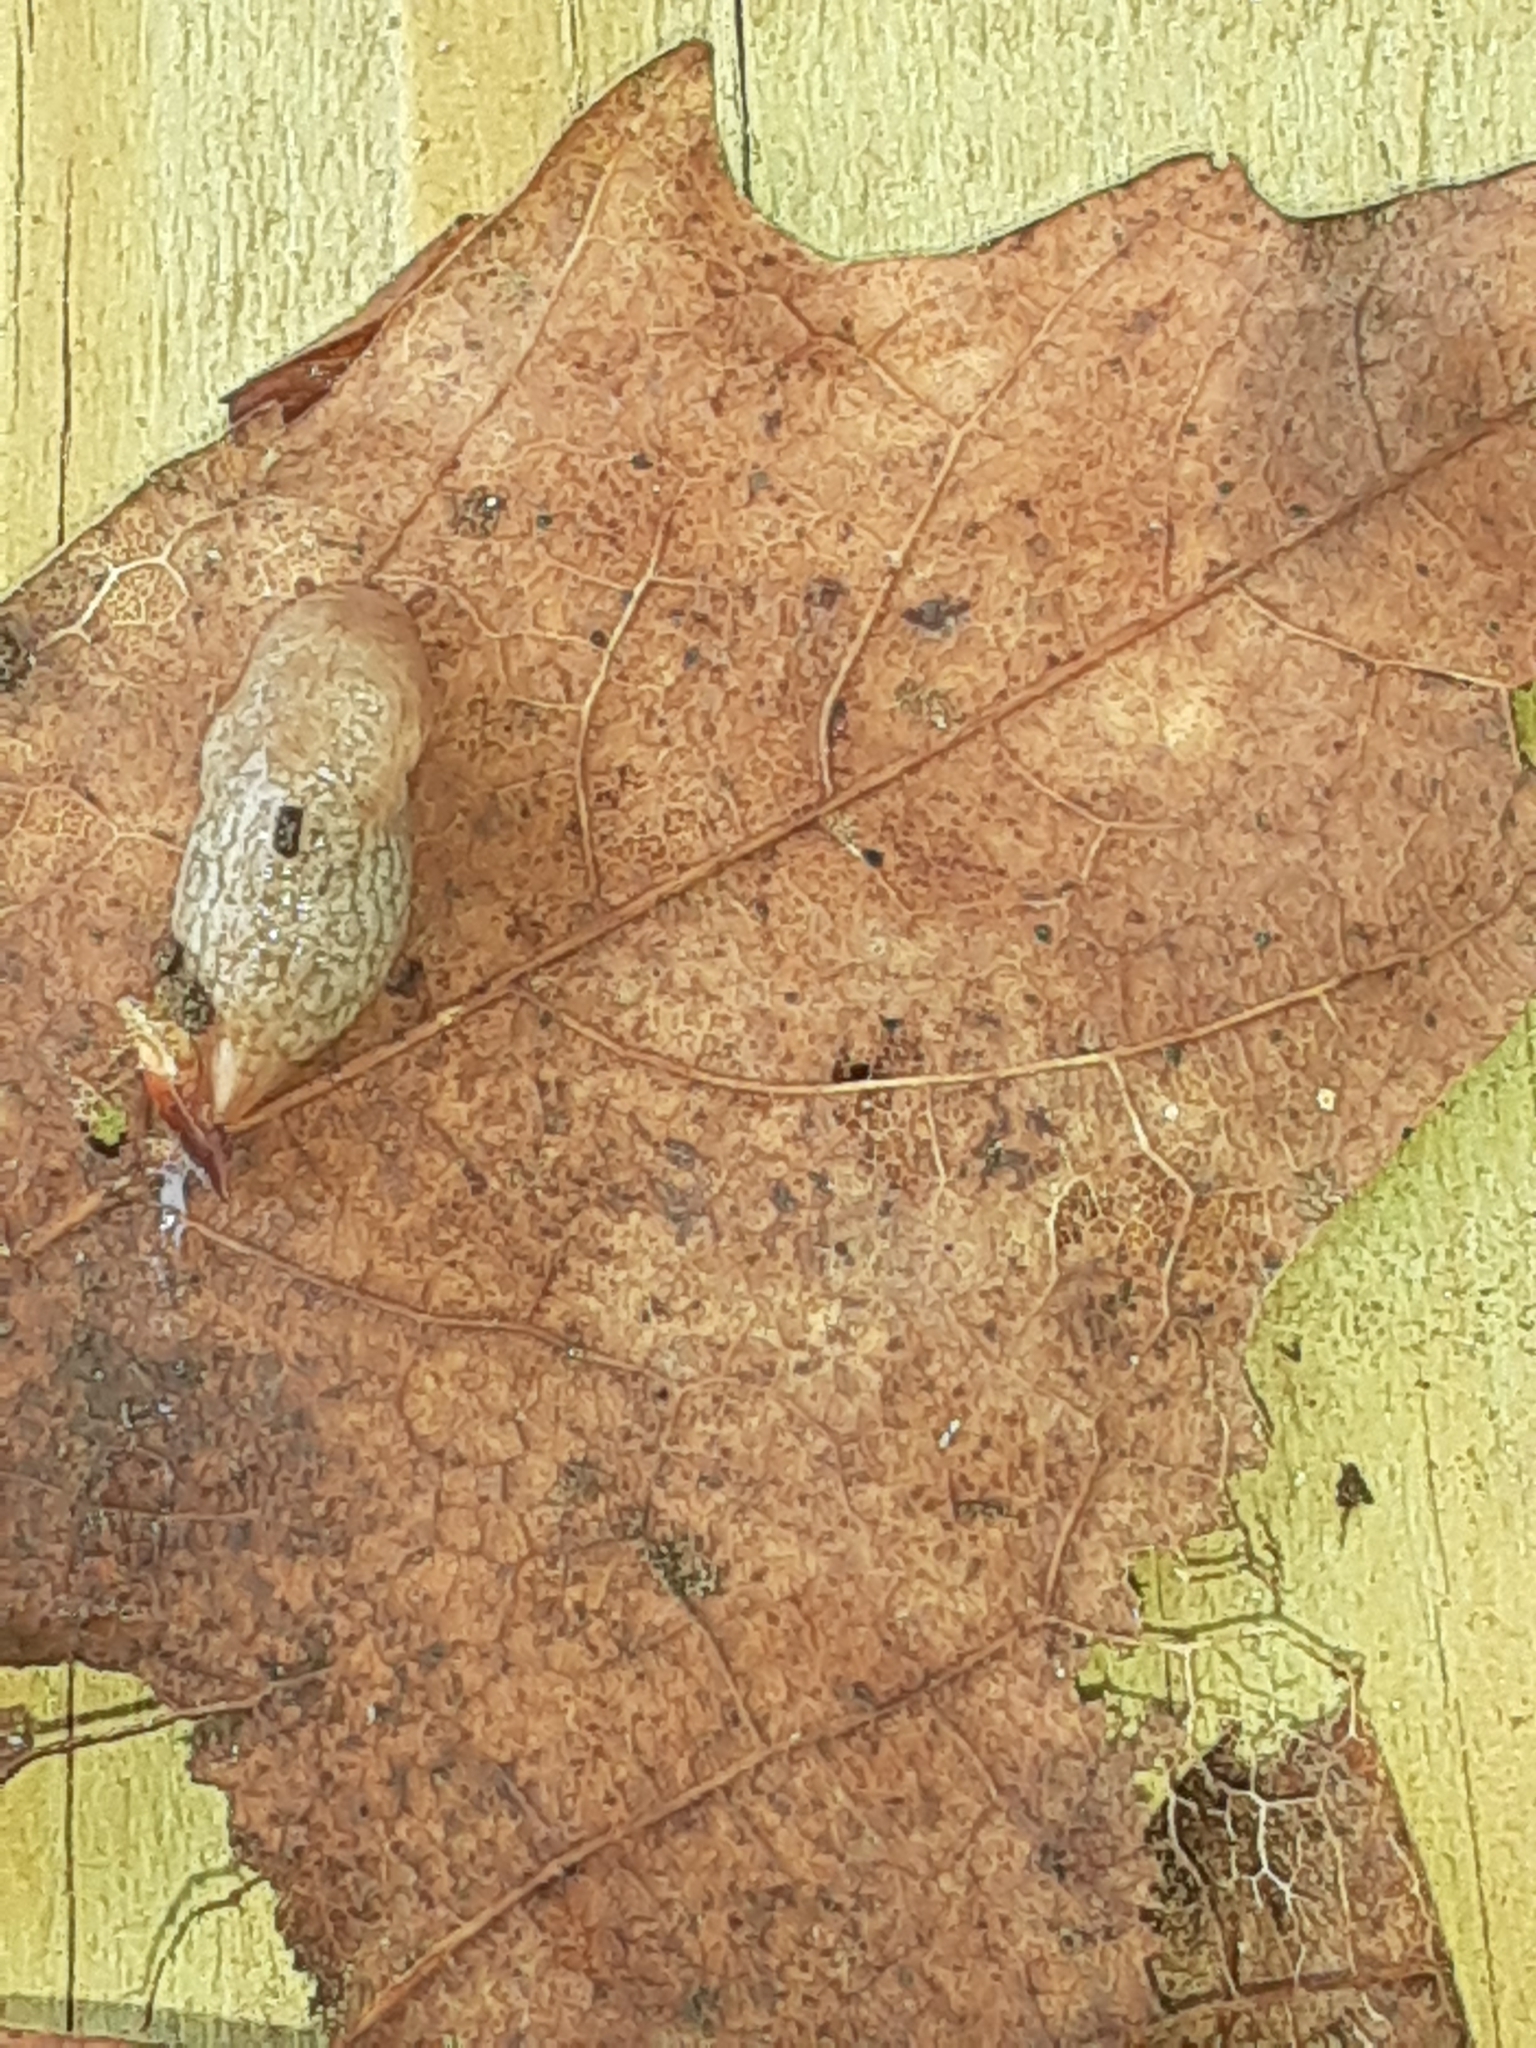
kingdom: Animalia
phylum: Mollusca
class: Gastropoda
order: Stylommatophora
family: Agriolimacidae
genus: Deroceras
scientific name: Deroceras reticulatum
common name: Gray field slug
